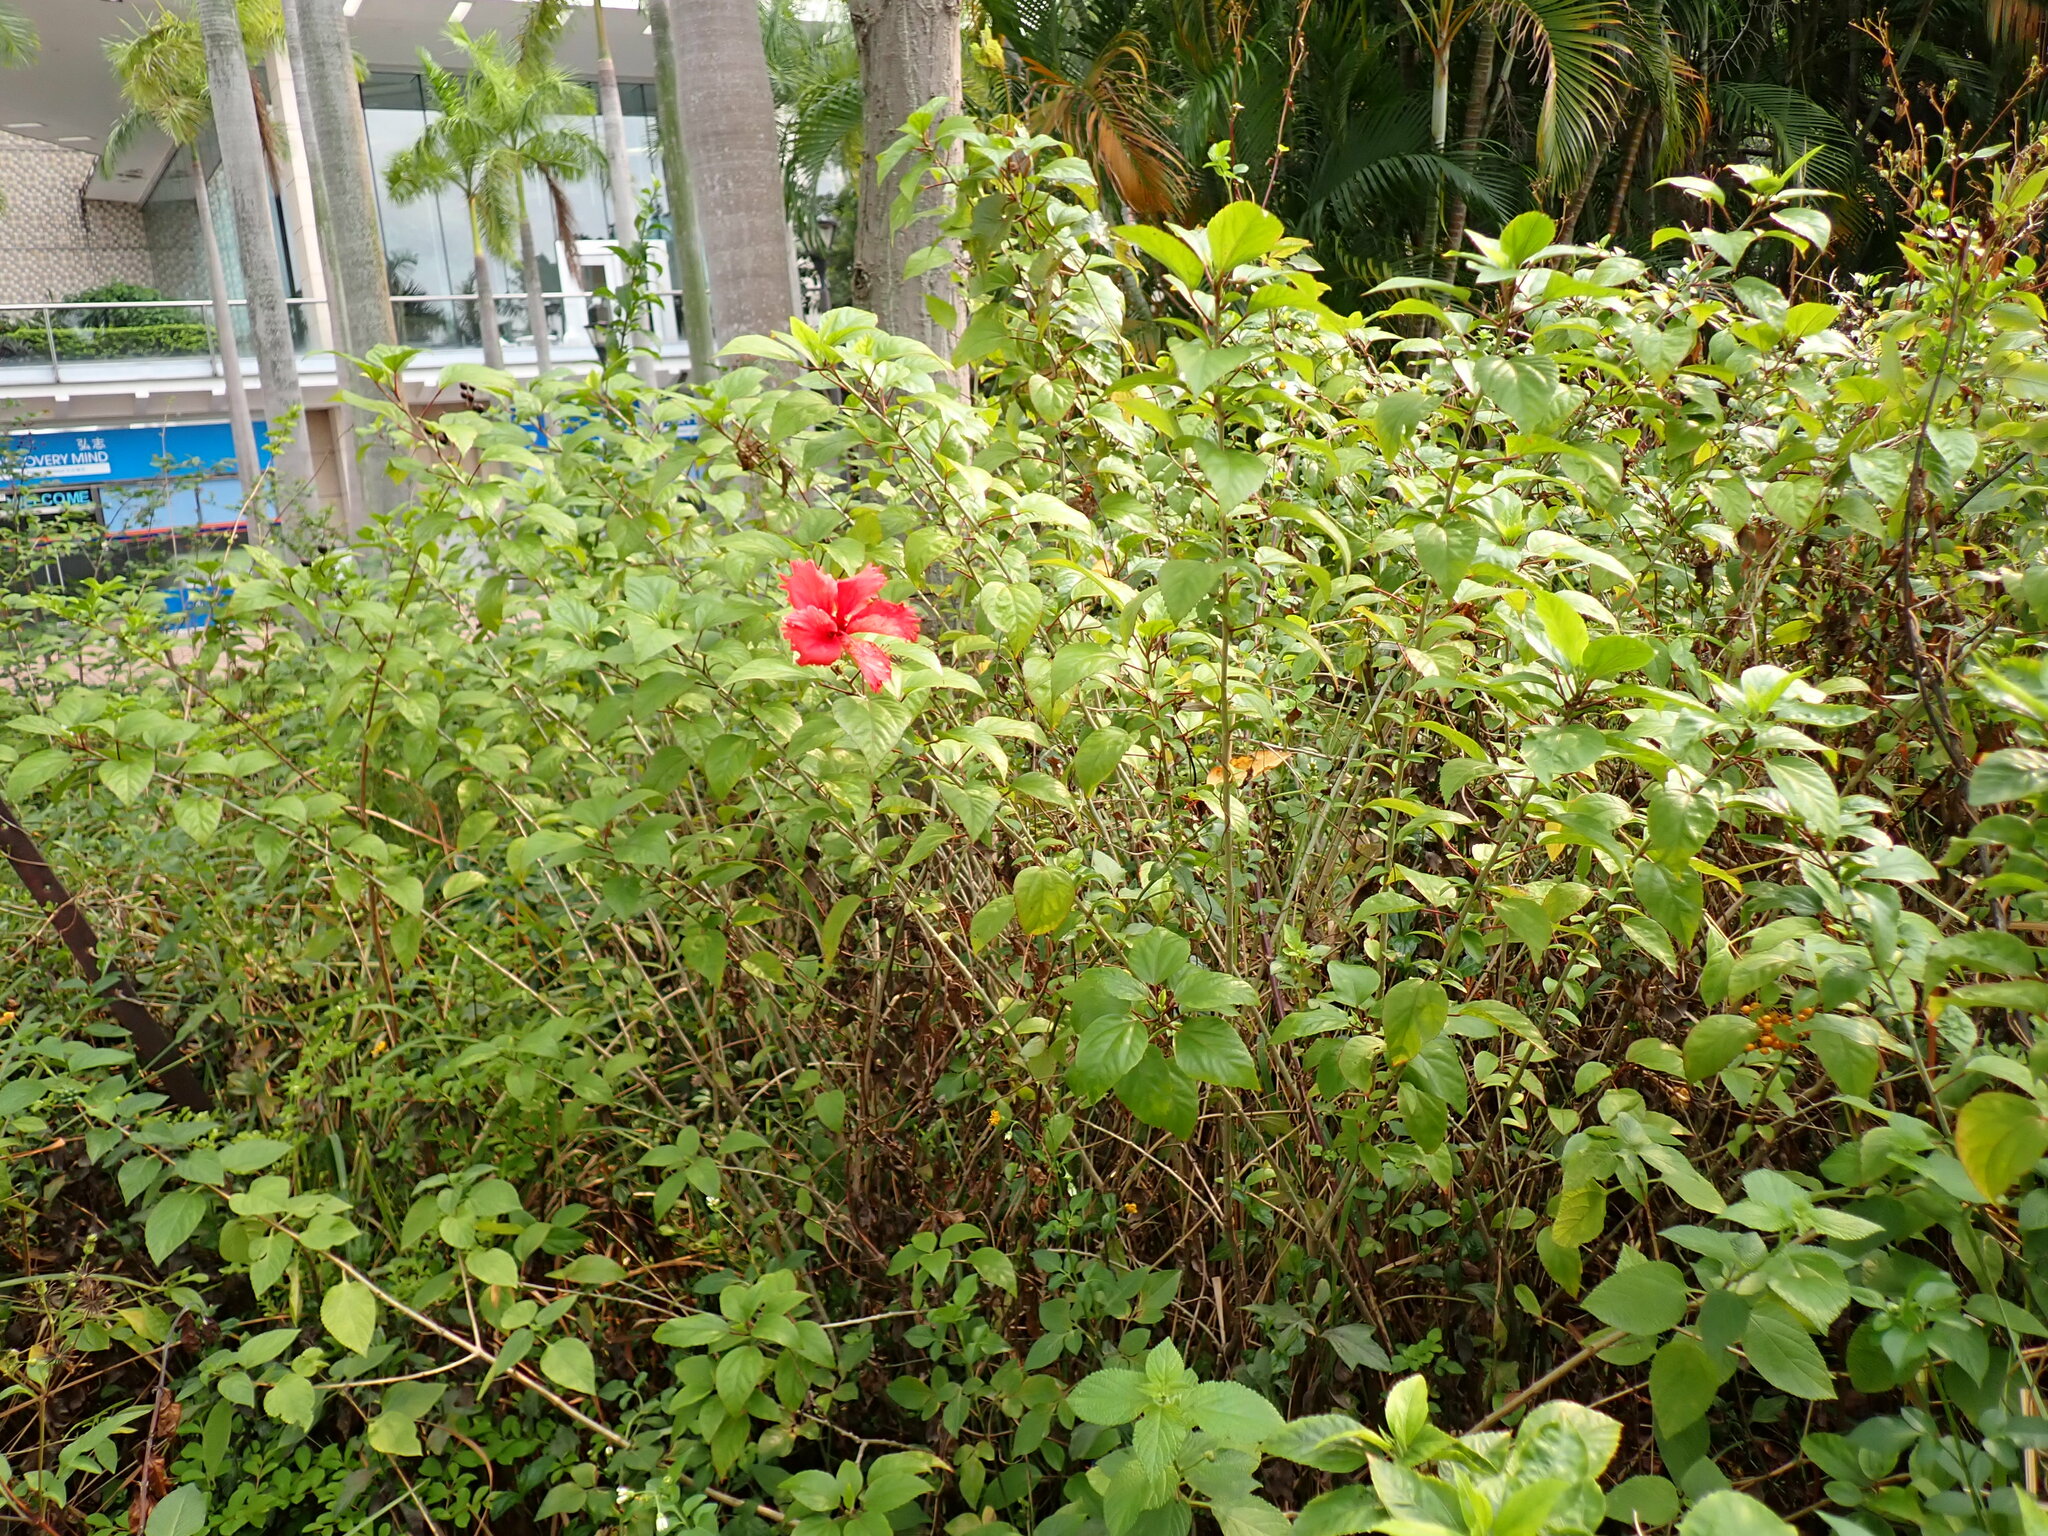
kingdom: Plantae
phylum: Tracheophyta
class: Magnoliopsida
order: Malvales
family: Malvaceae
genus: Hibiscus
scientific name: Hibiscus archeri
